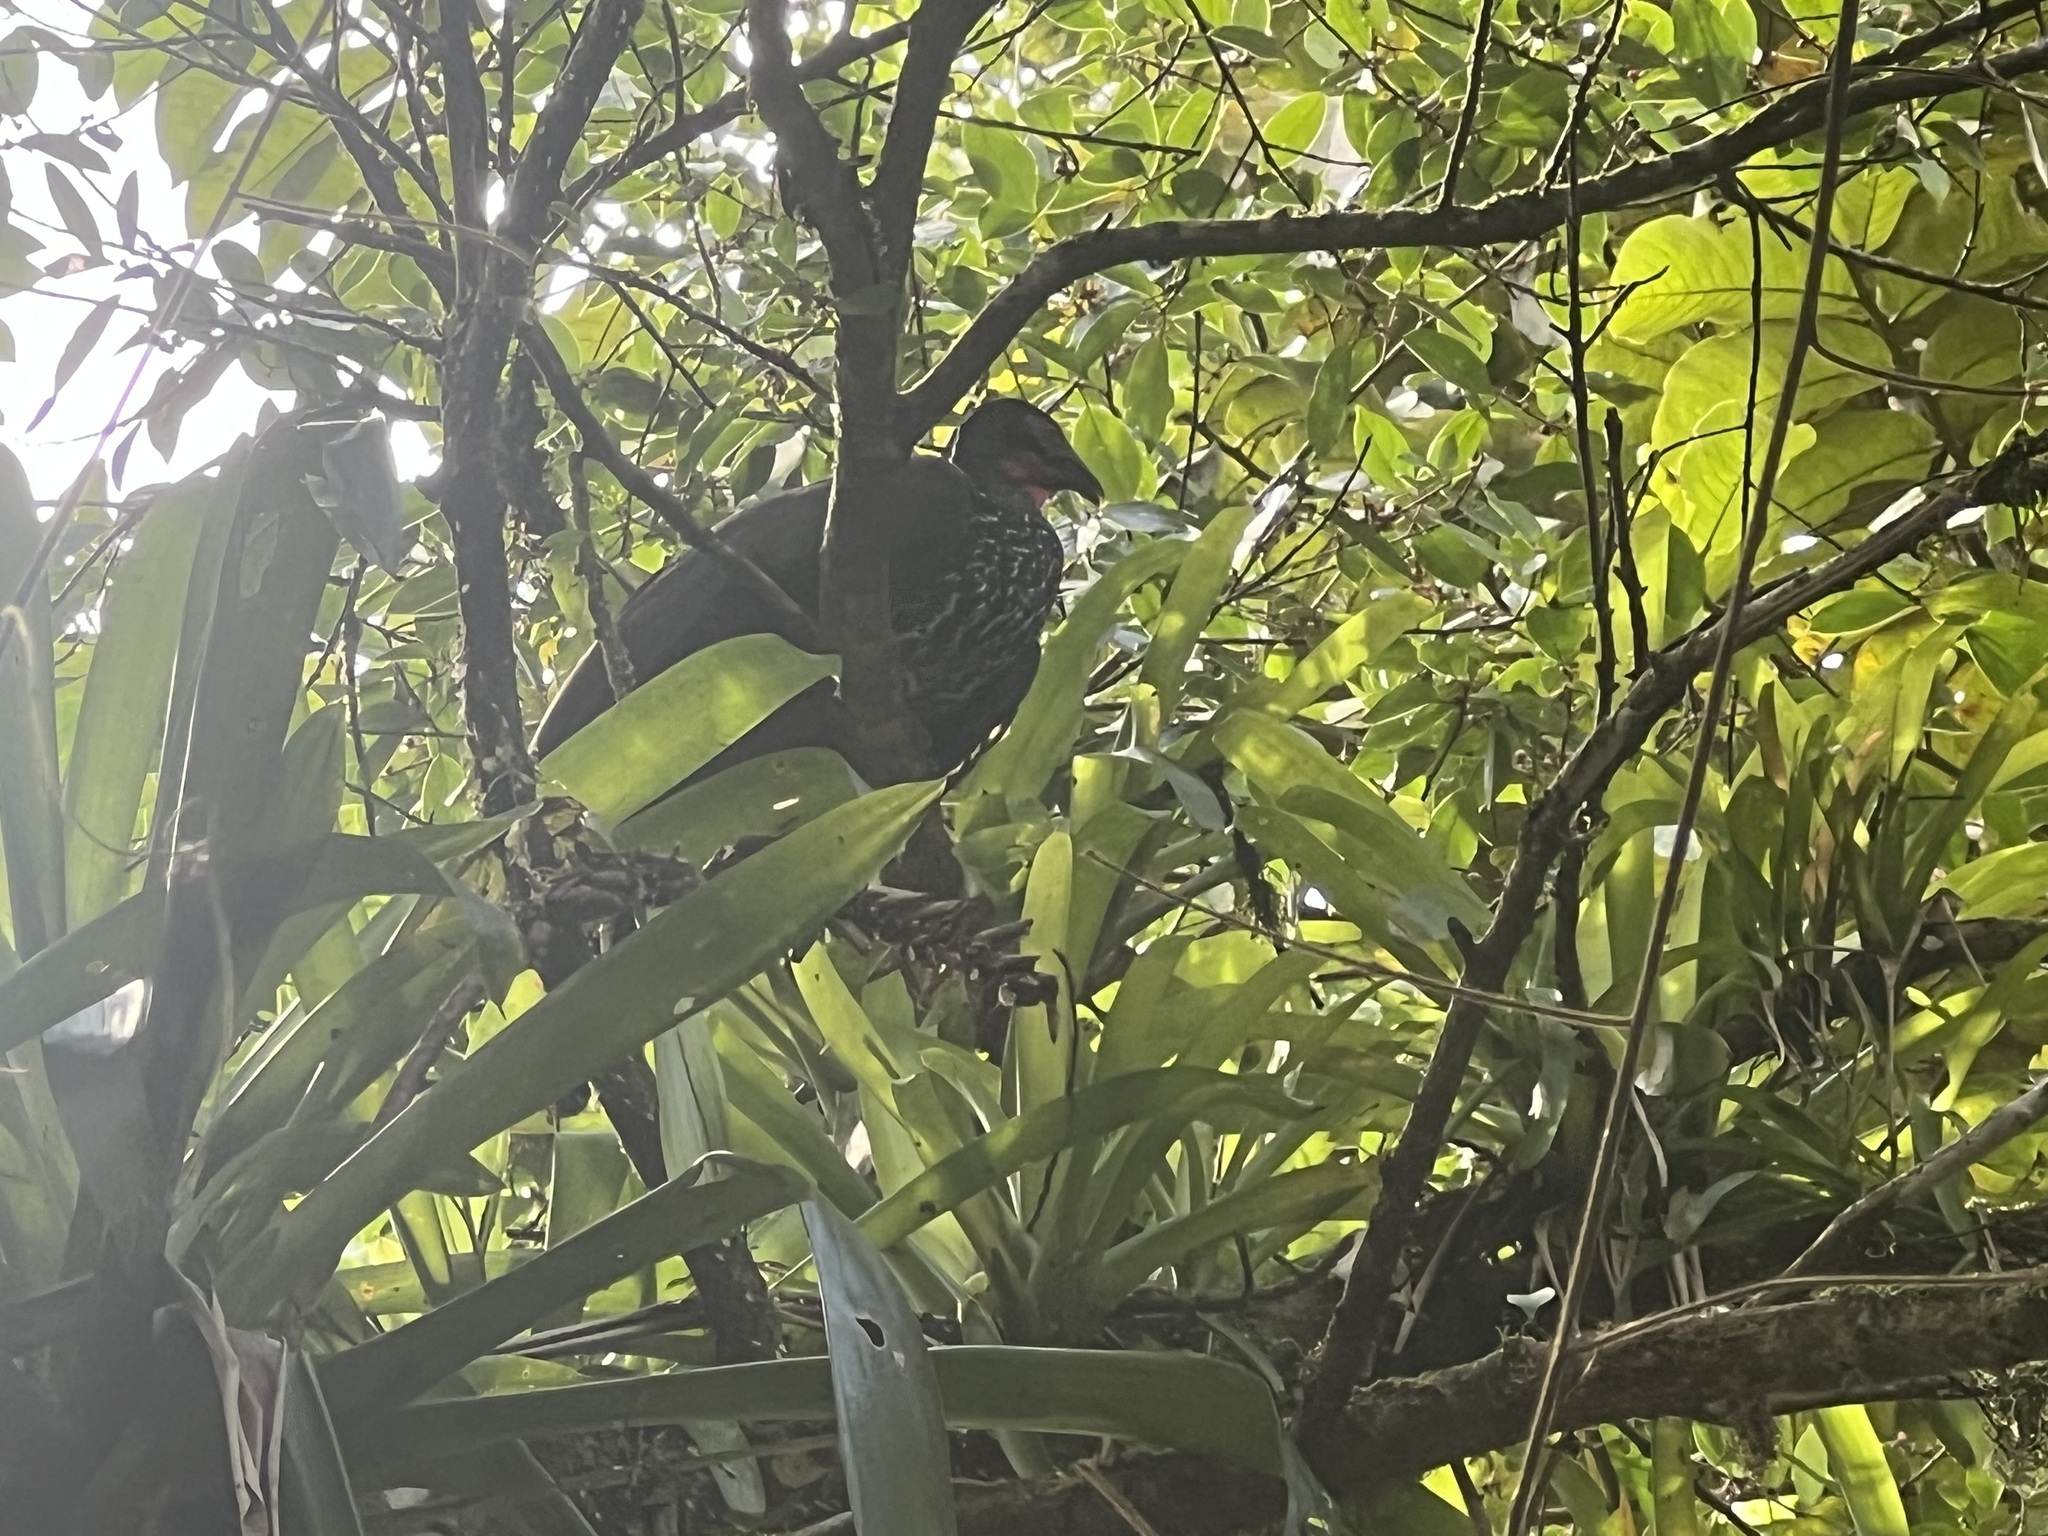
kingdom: Animalia
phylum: Chordata
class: Aves
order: Galliformes
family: Cracidae
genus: Penelope
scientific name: Penelope purpurascens
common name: Crested guan
